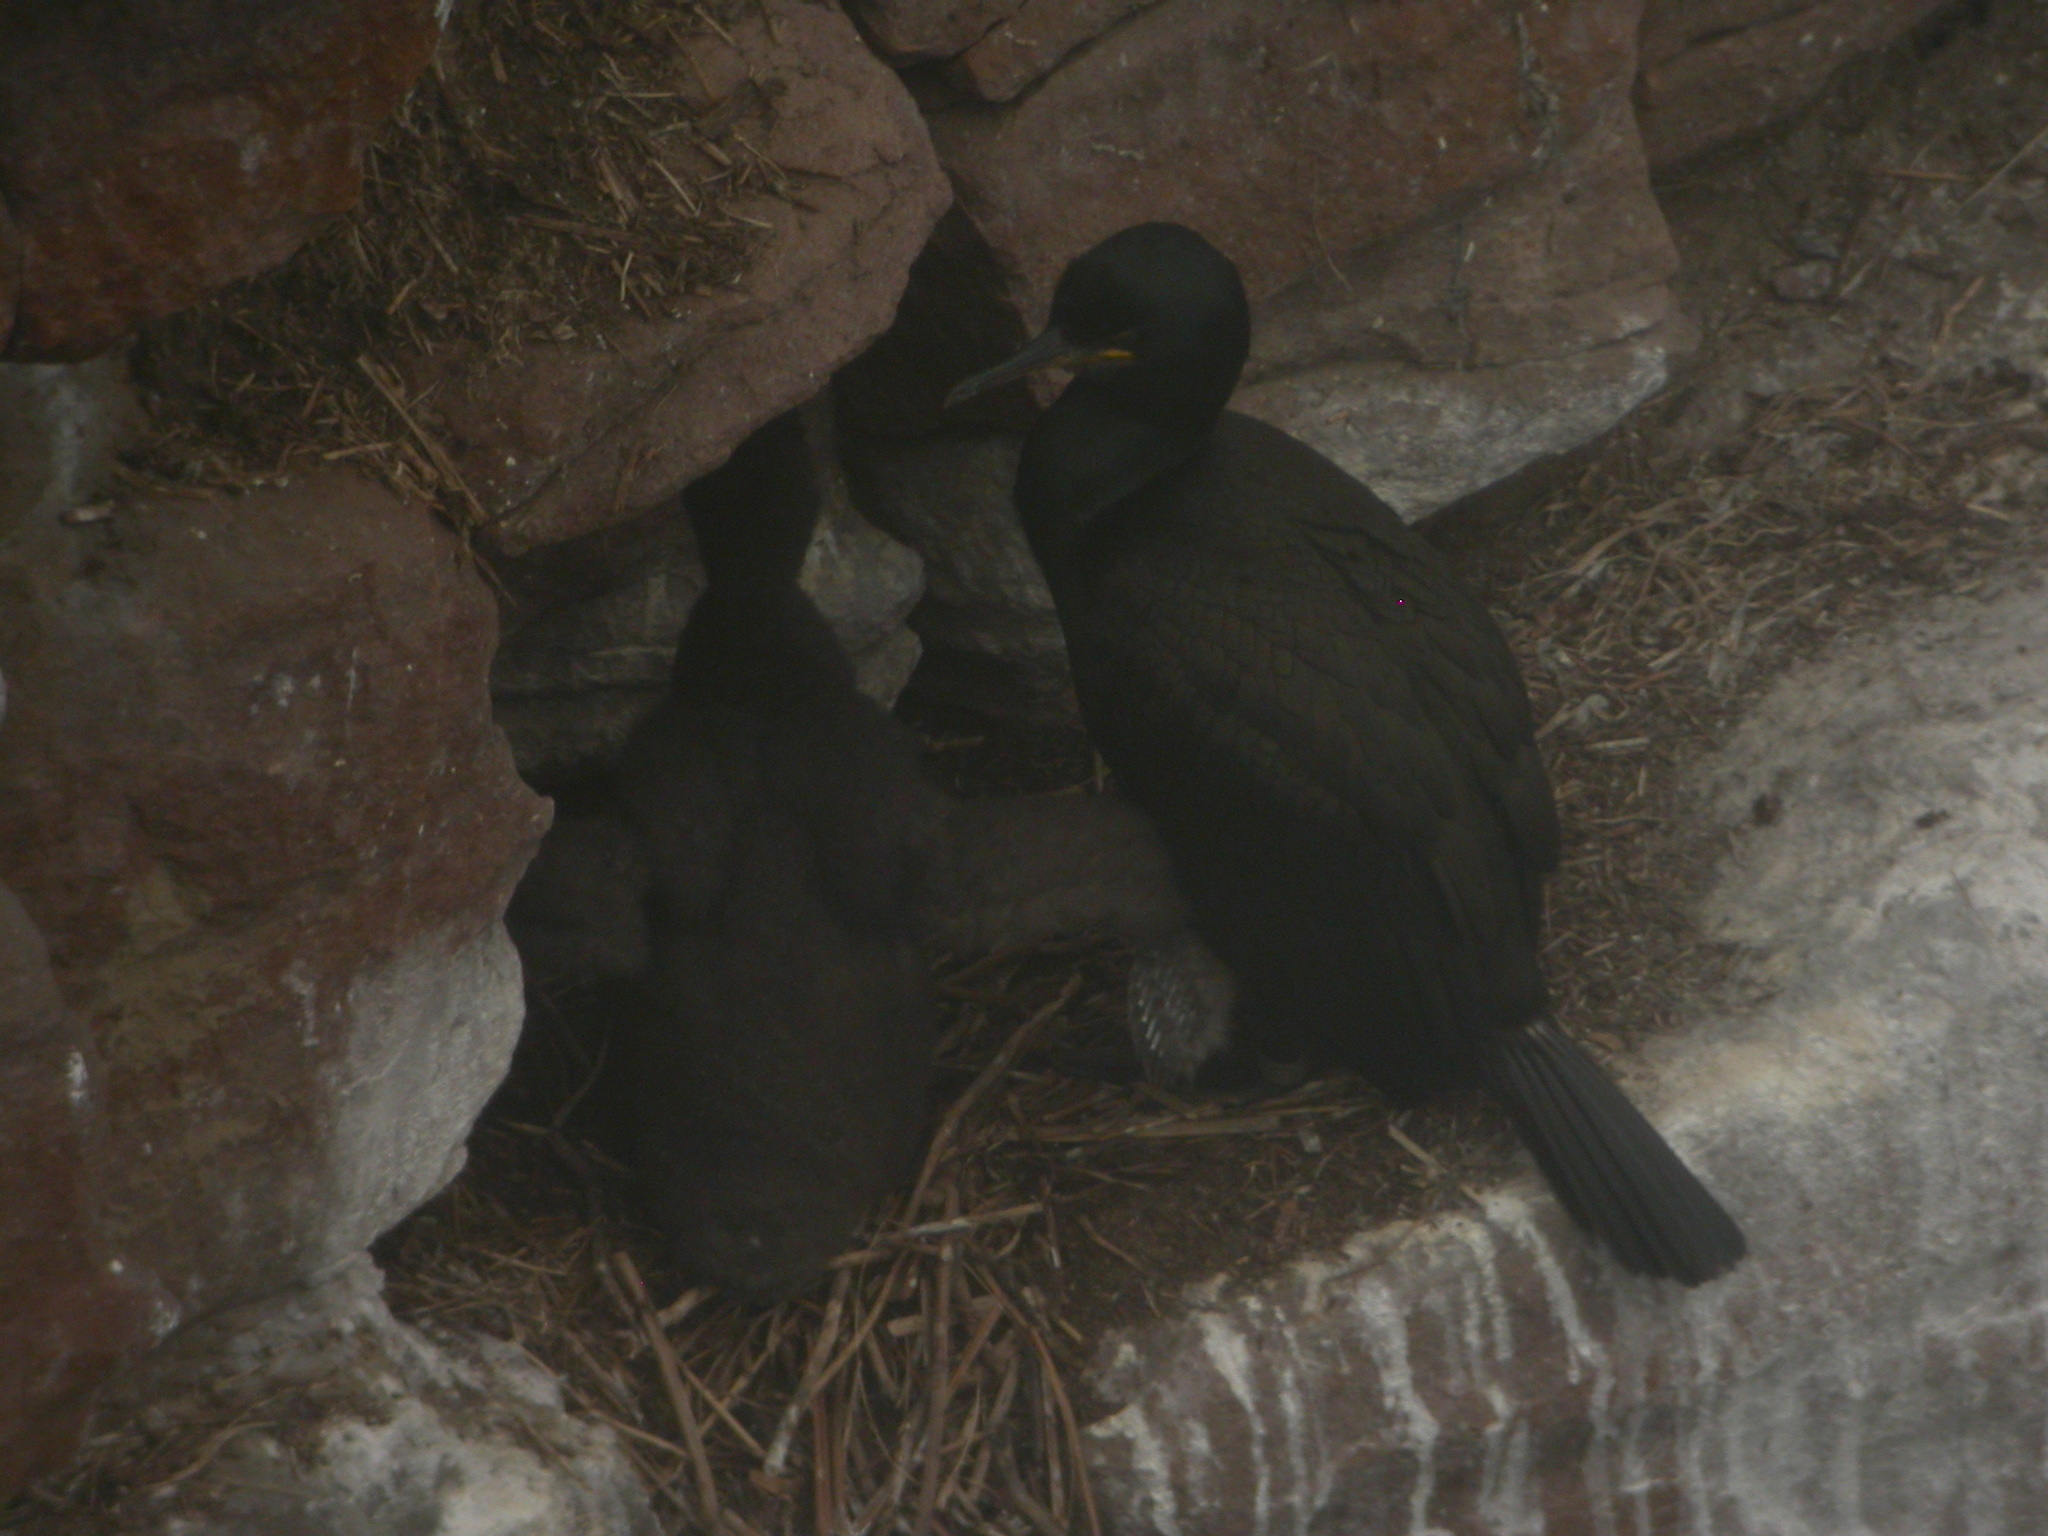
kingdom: Animalia
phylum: Chordata
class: Aves
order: Suliformes
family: Phalacrocoracidae
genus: Phalacrocorax
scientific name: Phalacrocorax aristotelis
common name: European shag
